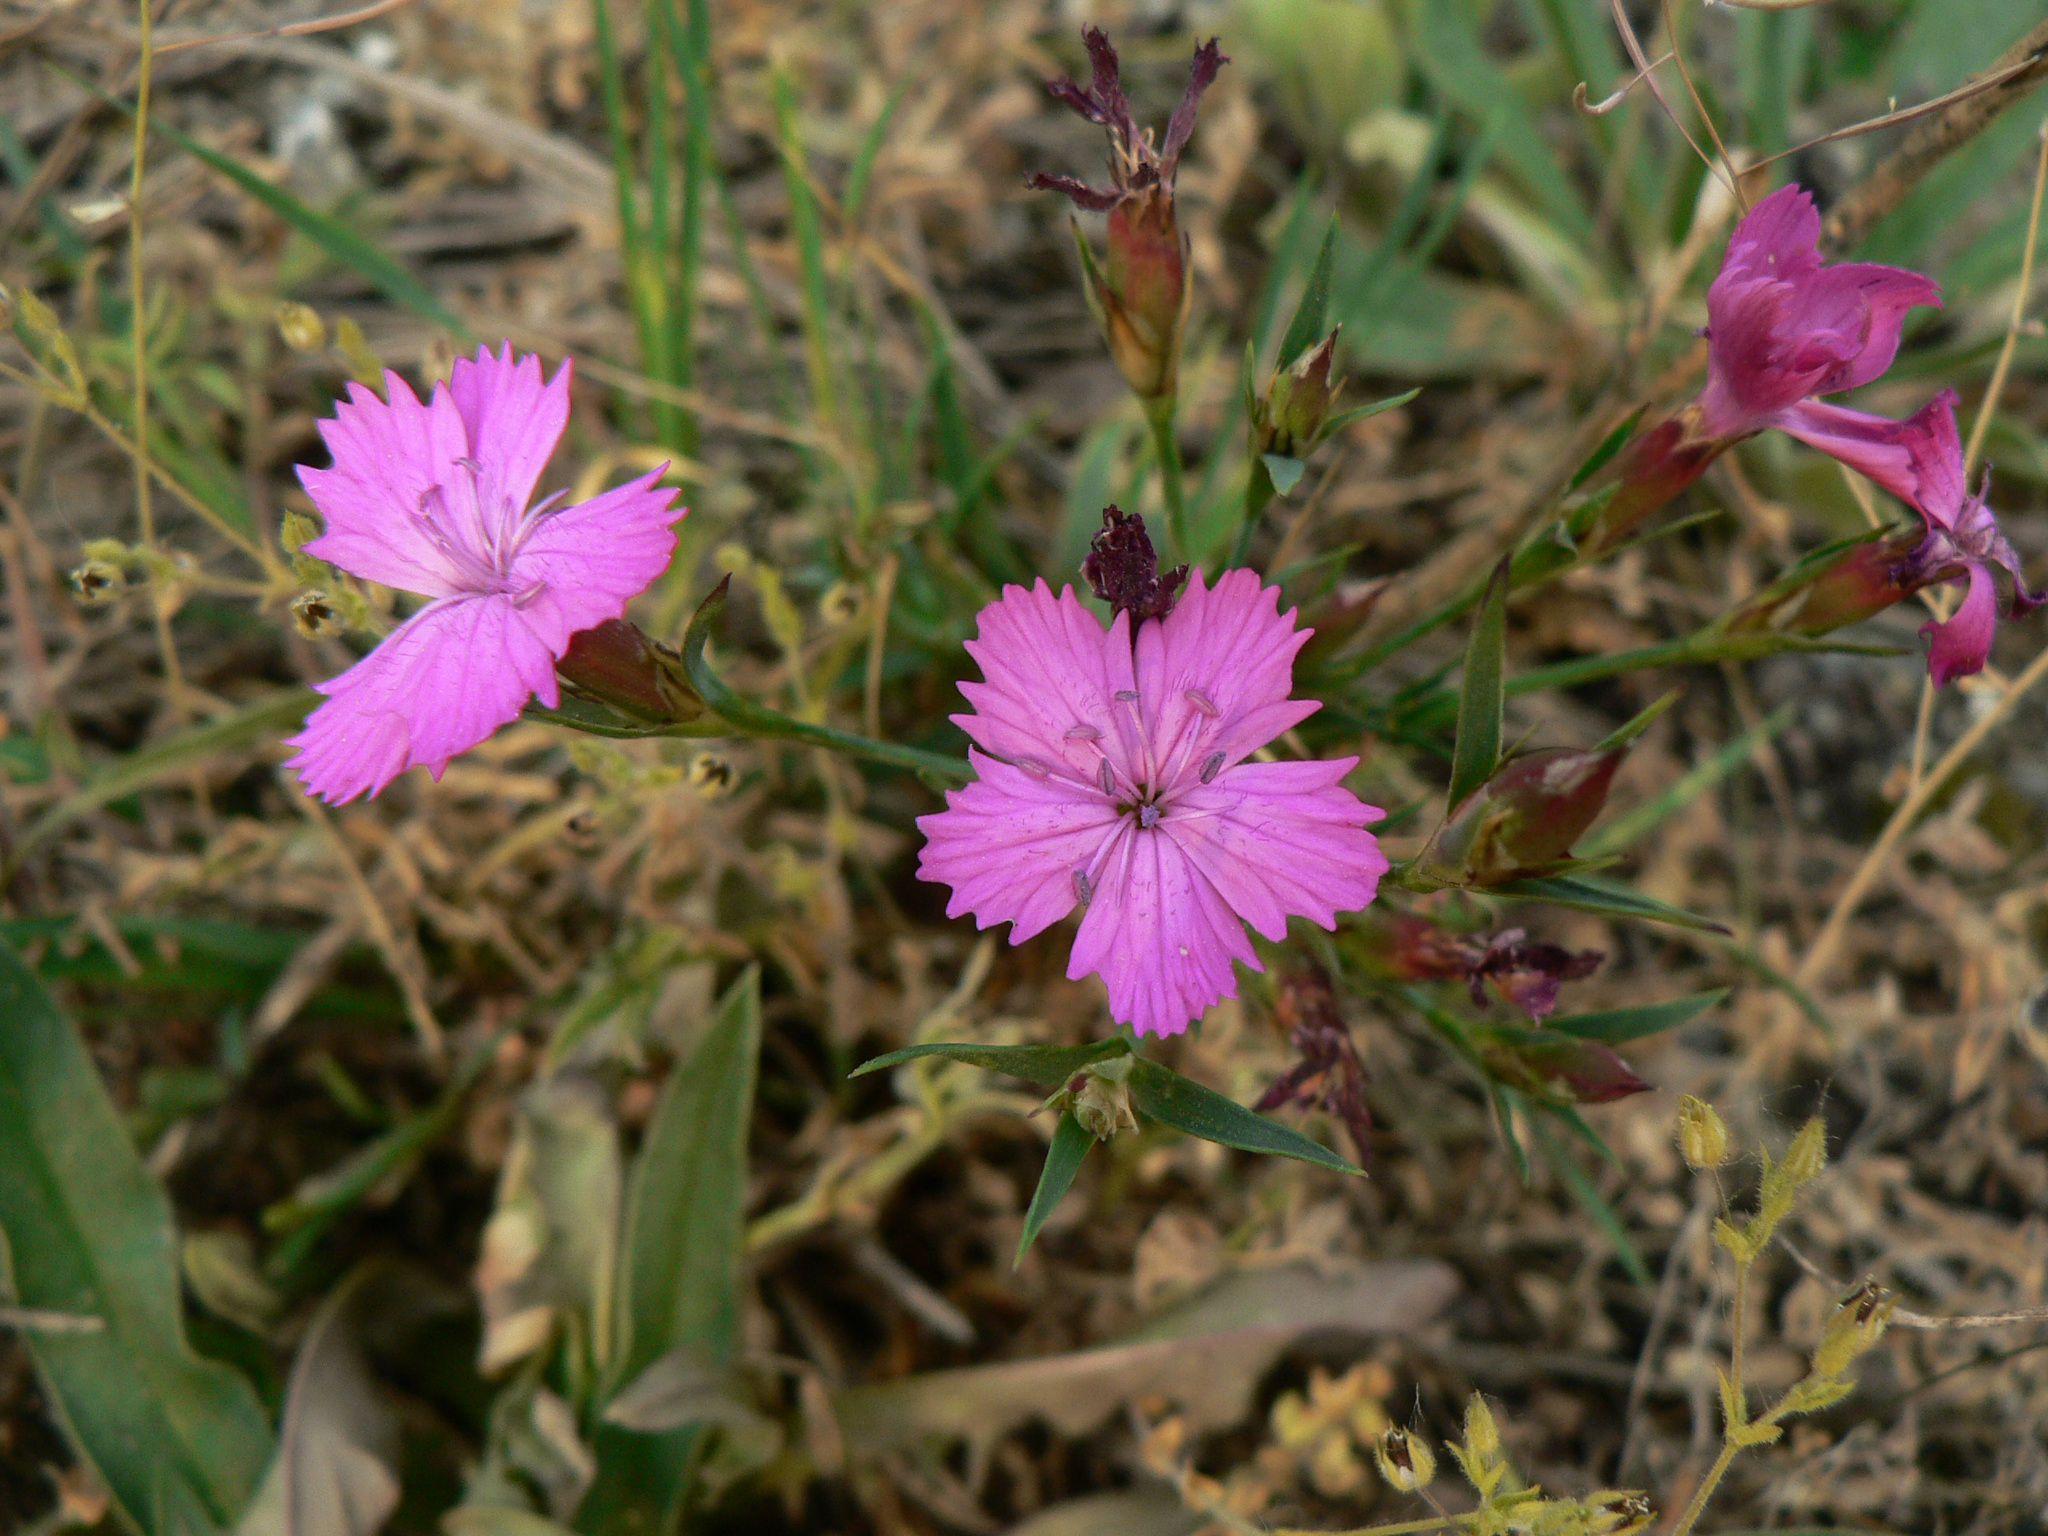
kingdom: Plantae
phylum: Tracheophyta
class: Magnoliopsida
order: Caryophyllales
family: Caryophyllaceae
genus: Dianthus
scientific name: Dianthus seguieri
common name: Ragged pink
